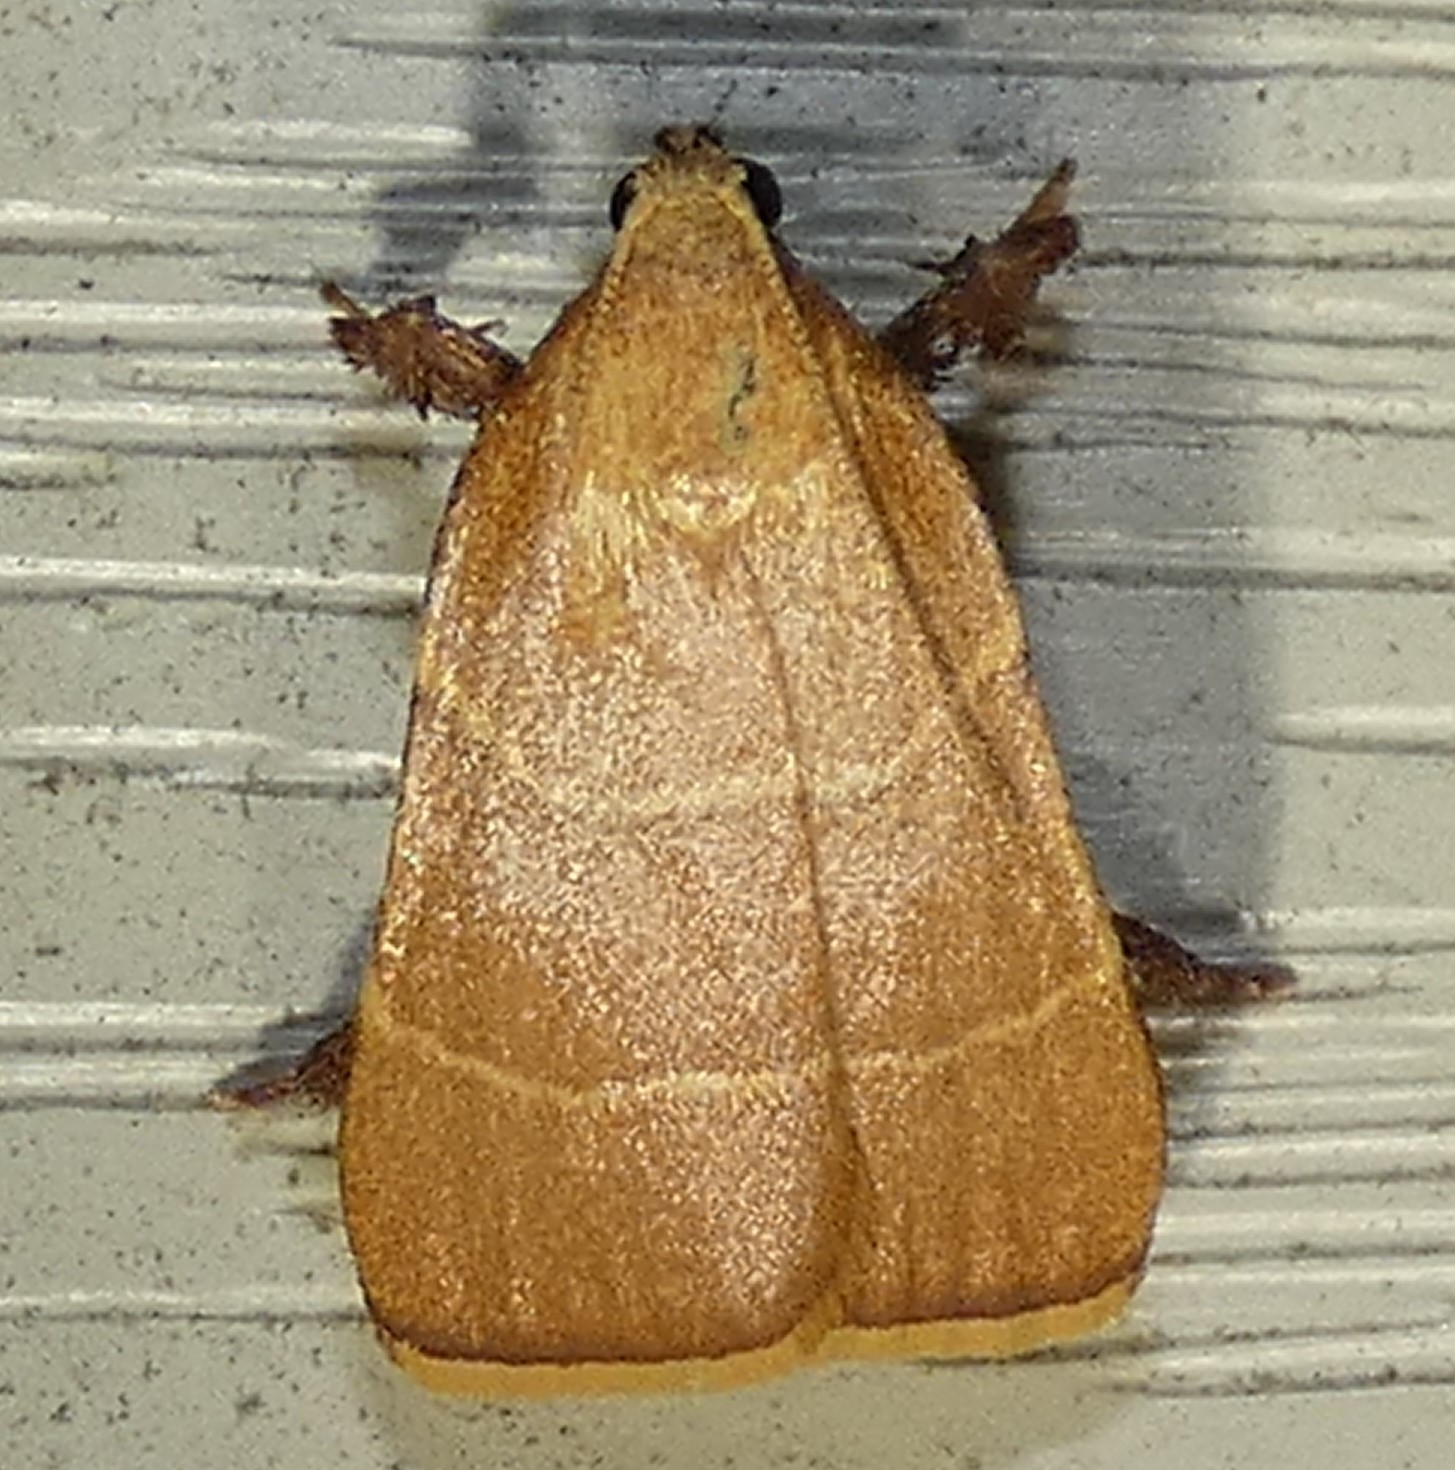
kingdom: Animalia
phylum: Arthropoda
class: Insecta
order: Lepidoptera
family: Pyralidae
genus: Parachma
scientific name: Parachma ochracealis
